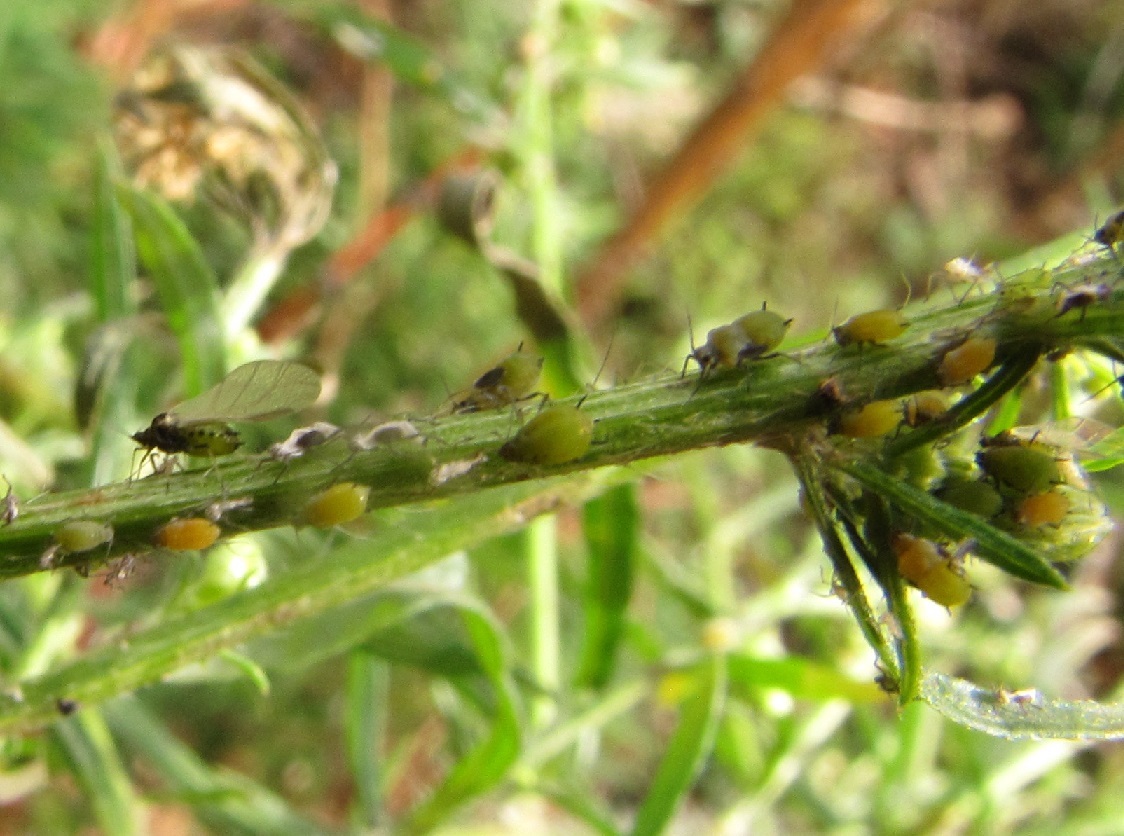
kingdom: Animalia
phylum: Arthropoda
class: Insecta
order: Hemiptera
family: Aphididae
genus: Aphis
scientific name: Aphis spiraecola
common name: Spirea aphid
